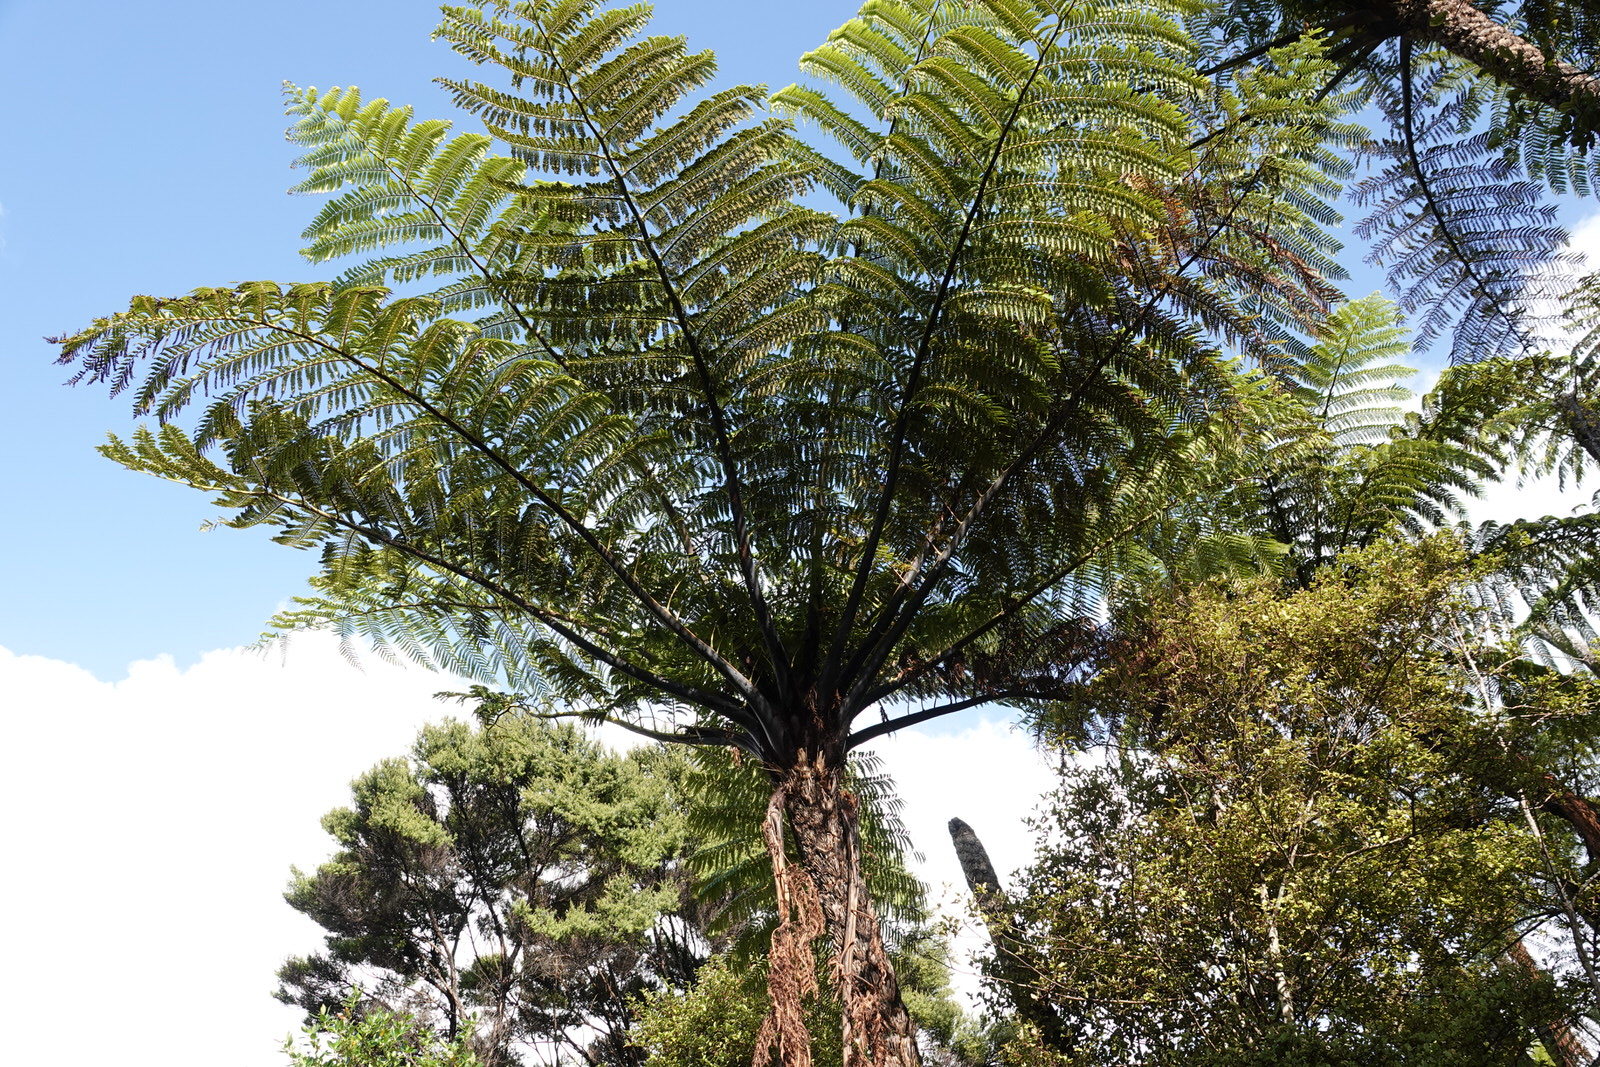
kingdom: Plantae
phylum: Tracheophyta
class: Polypodiopsida
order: Cyatheales
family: Cyatheaceae
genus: Sphaeropteris
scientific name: Sphaeropteris medullaris
